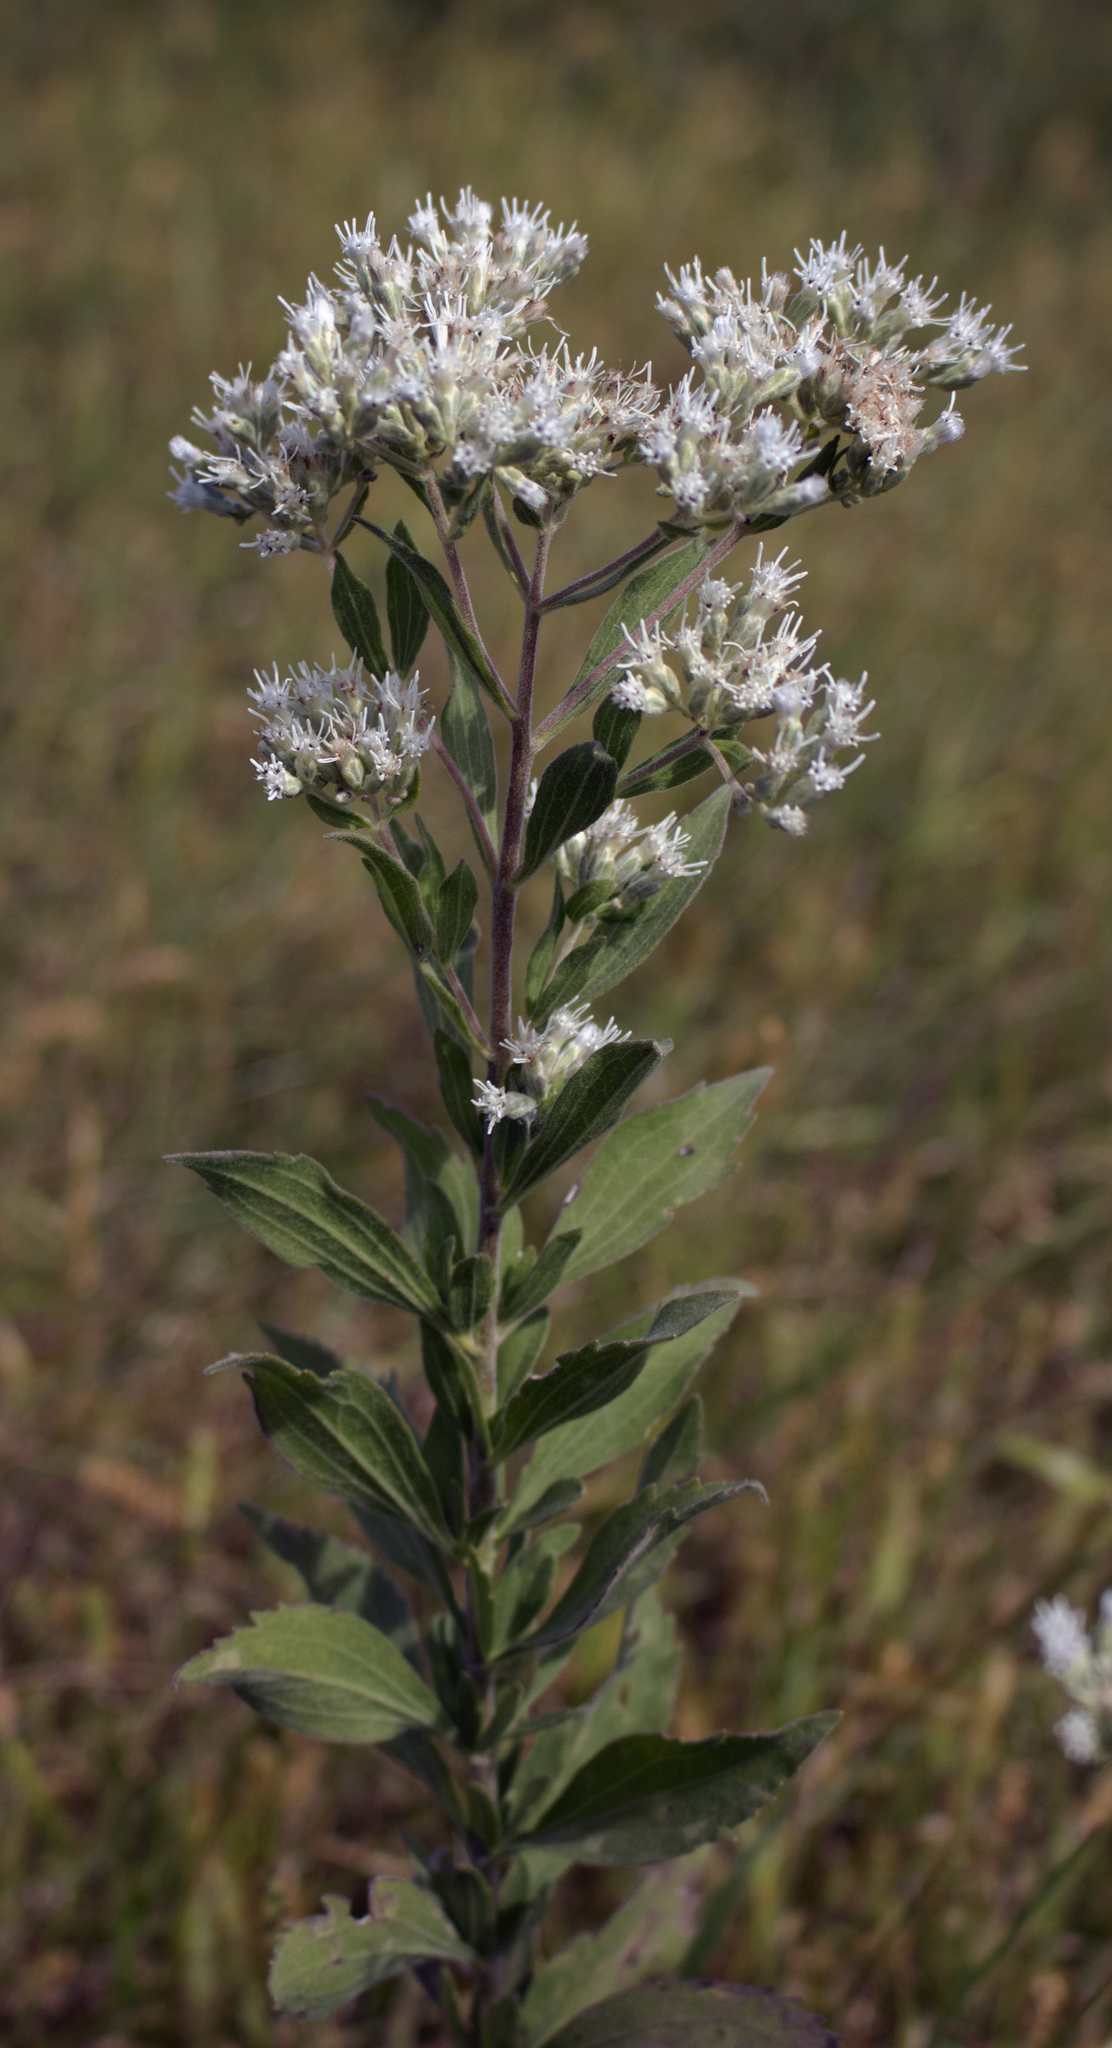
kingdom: Plantae
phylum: Tracheophyta
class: Magnoliopsida
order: Asterales
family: Asteraceae
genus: Eupatorium
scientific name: Eupatorium altissimum
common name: Tall thoroughwort
